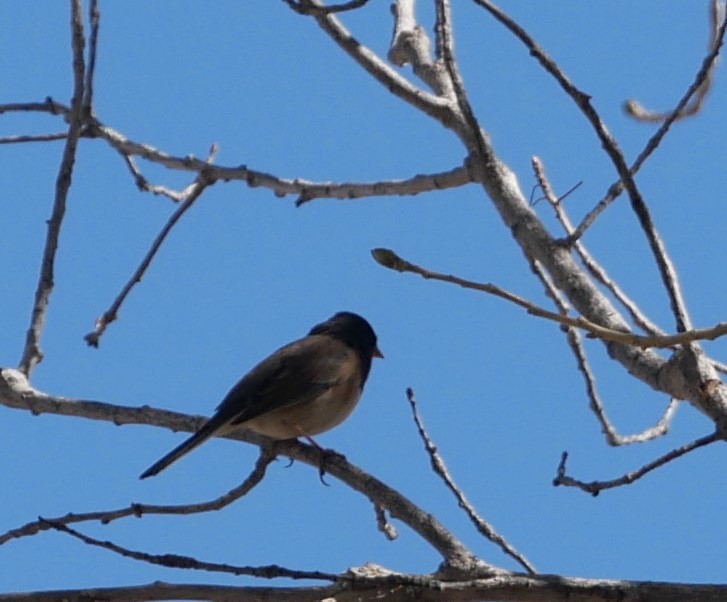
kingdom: Animalia
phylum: Chordata
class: Aves
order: Passeriformes
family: Passerellidae
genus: Junco
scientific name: Junco hyemalis
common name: Dark-eyed junco
